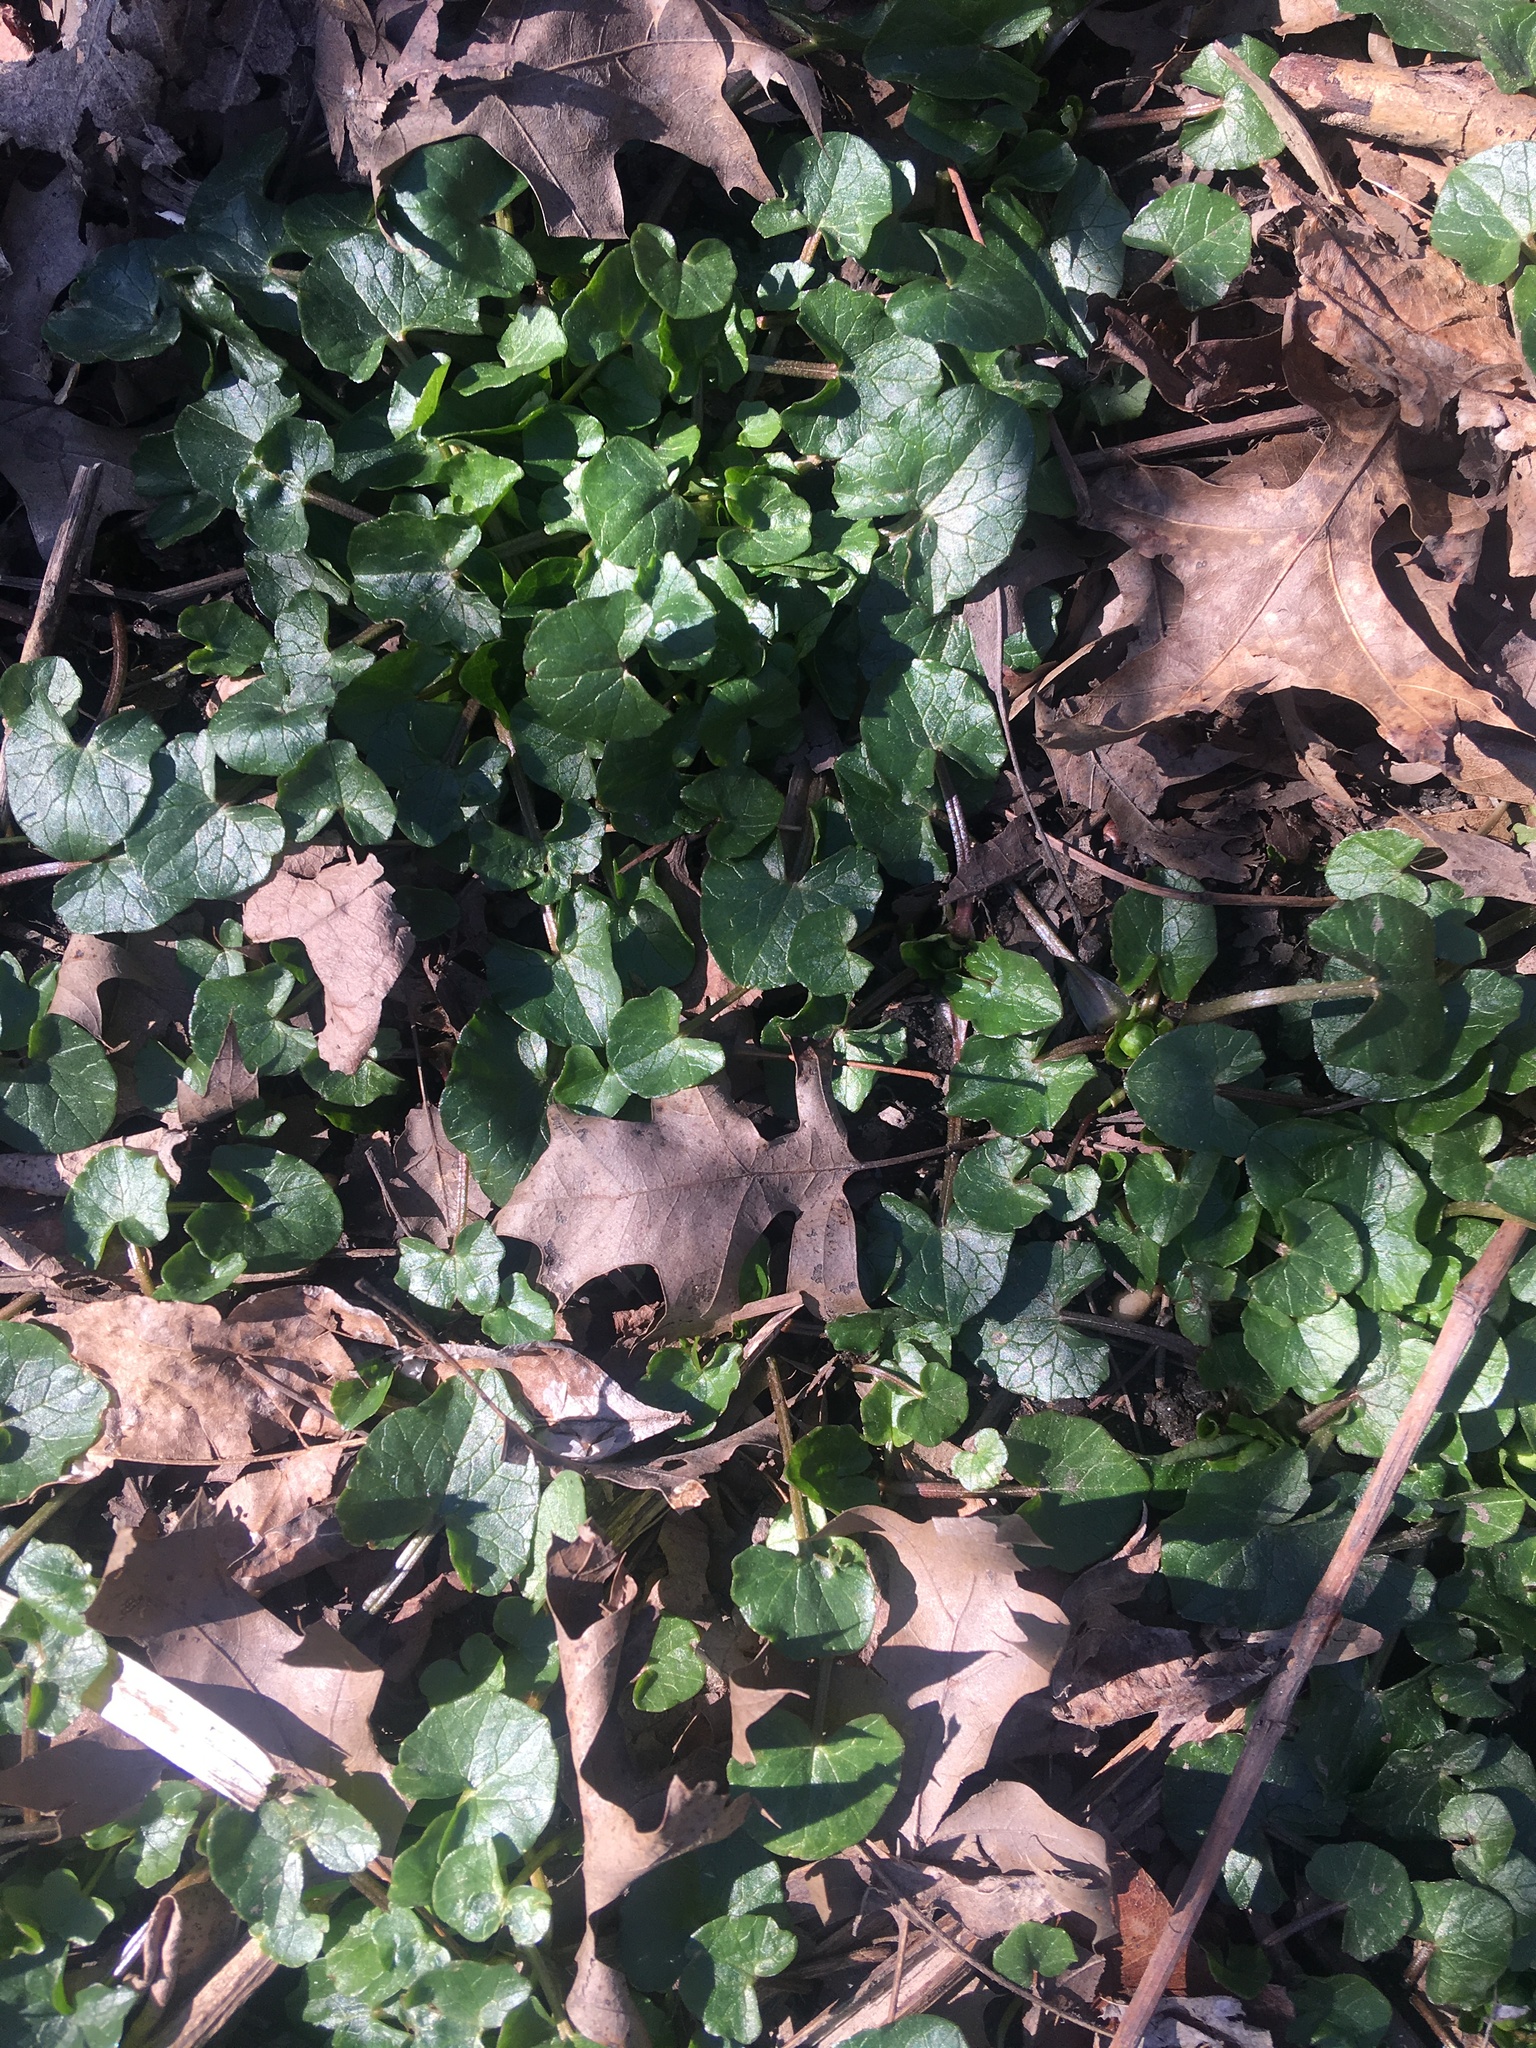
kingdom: Plantae
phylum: Tracheophyta
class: Magnoliopsida
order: Ranunculales
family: Ranunculaceae
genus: Ficaria
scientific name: Ficaria verna
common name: Lesser celandine
